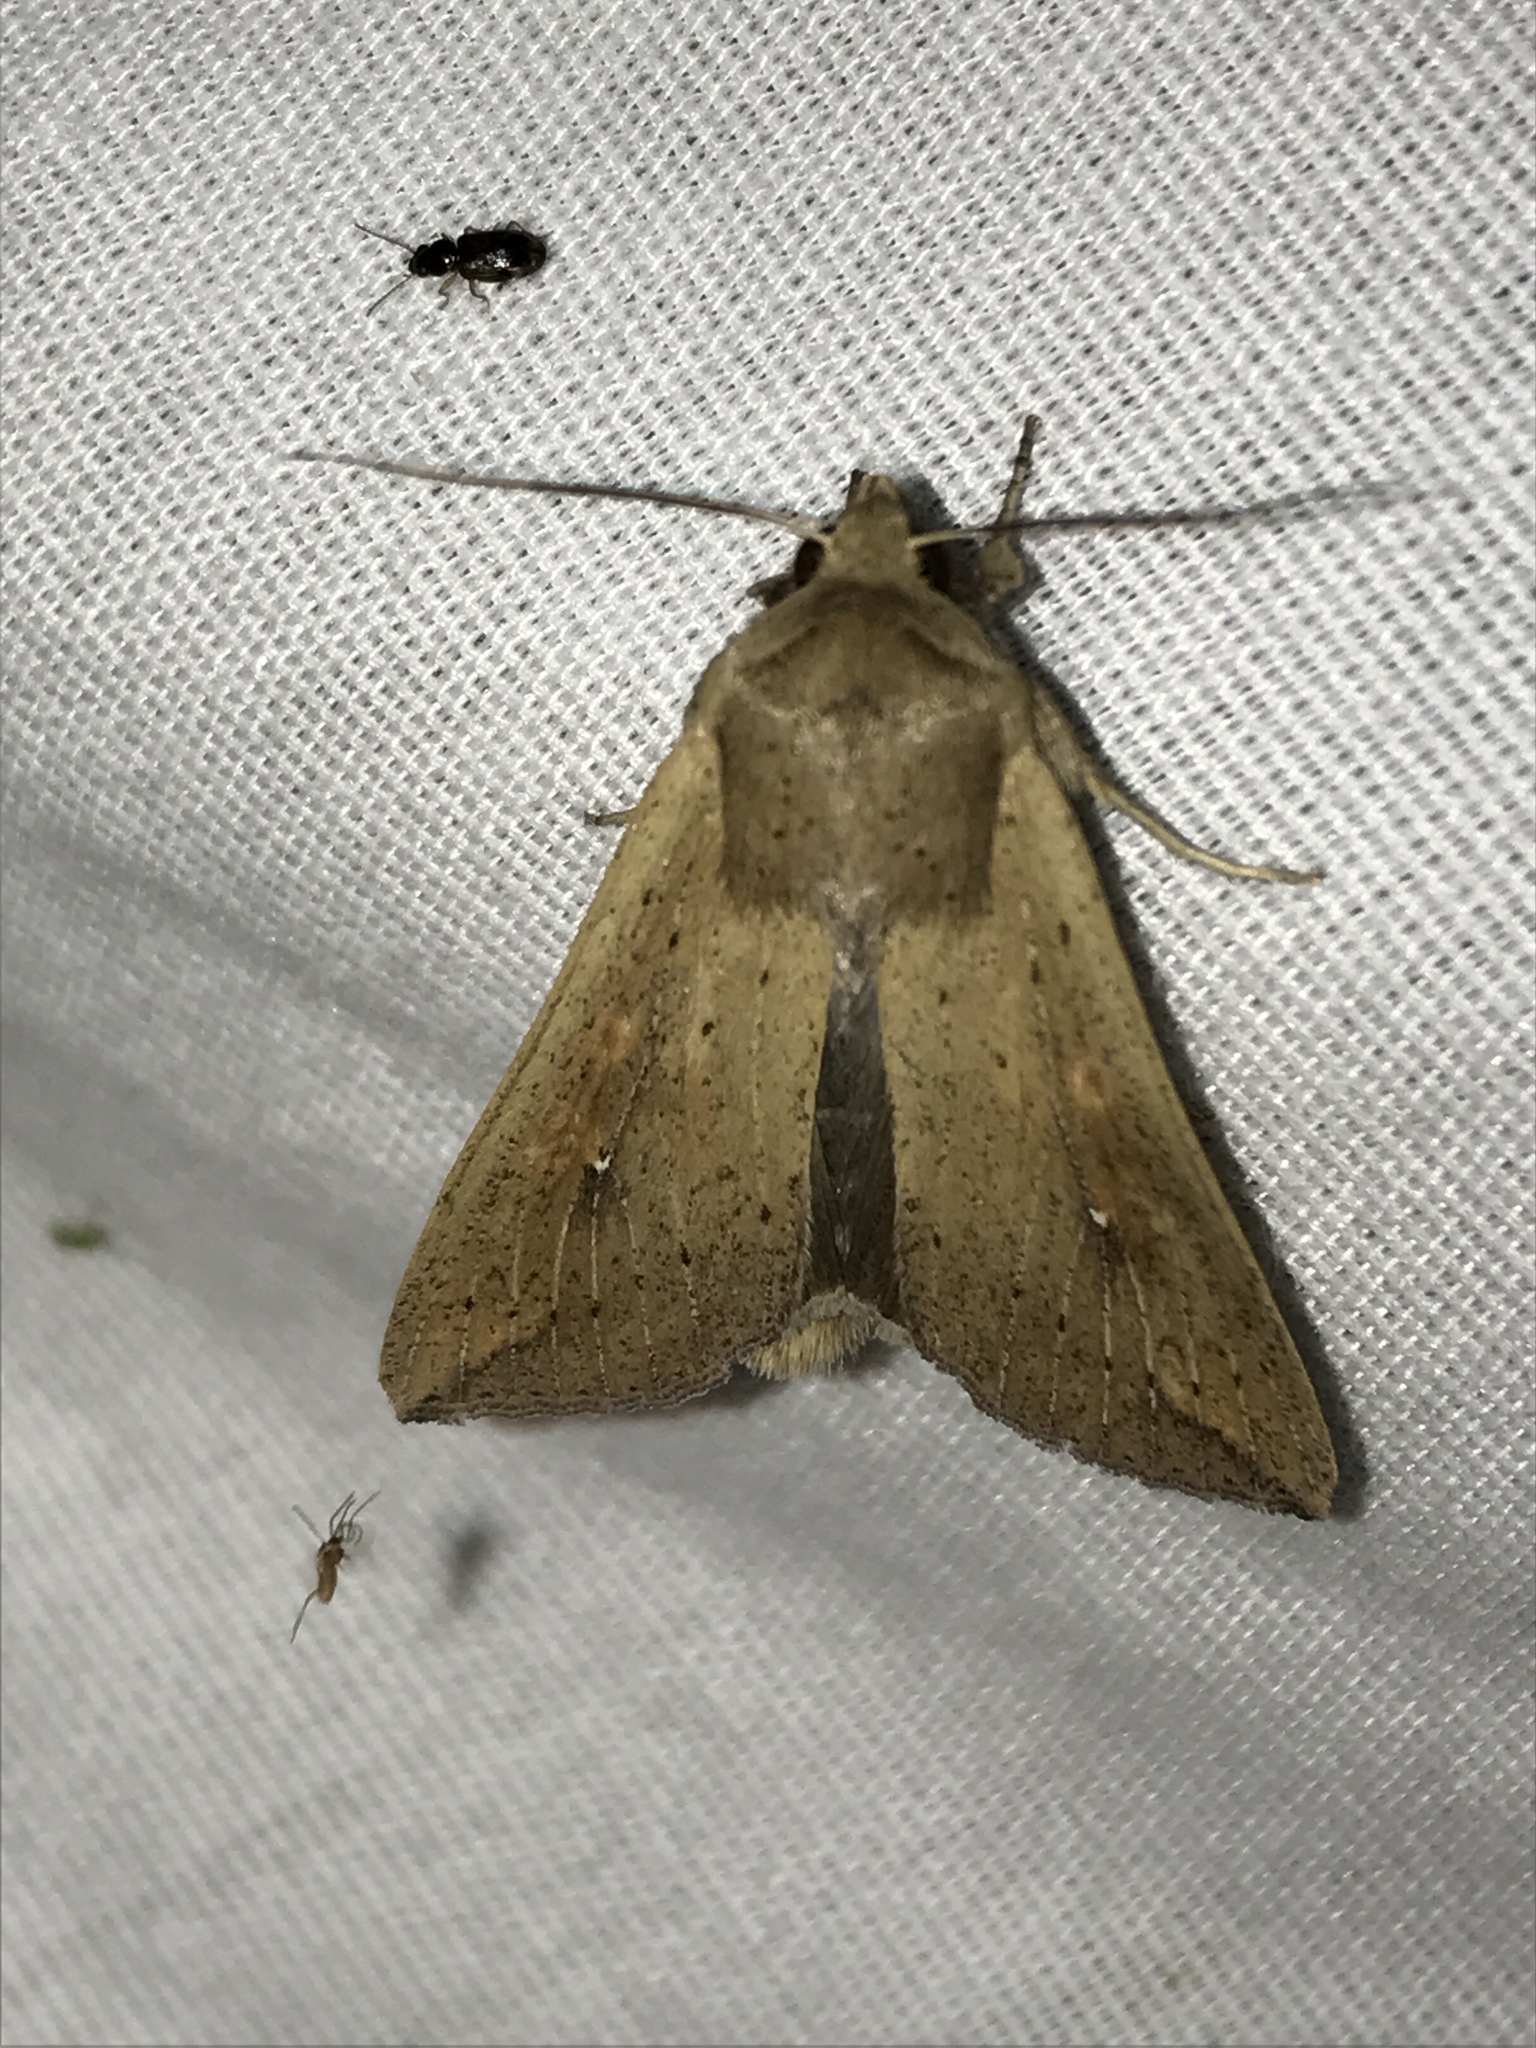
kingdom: Animalia
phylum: Arthropoda
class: Insecta
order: Lepidoptera
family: Noctuidae
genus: Mythimna
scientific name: Mythimna unipuncta
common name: White-speck
